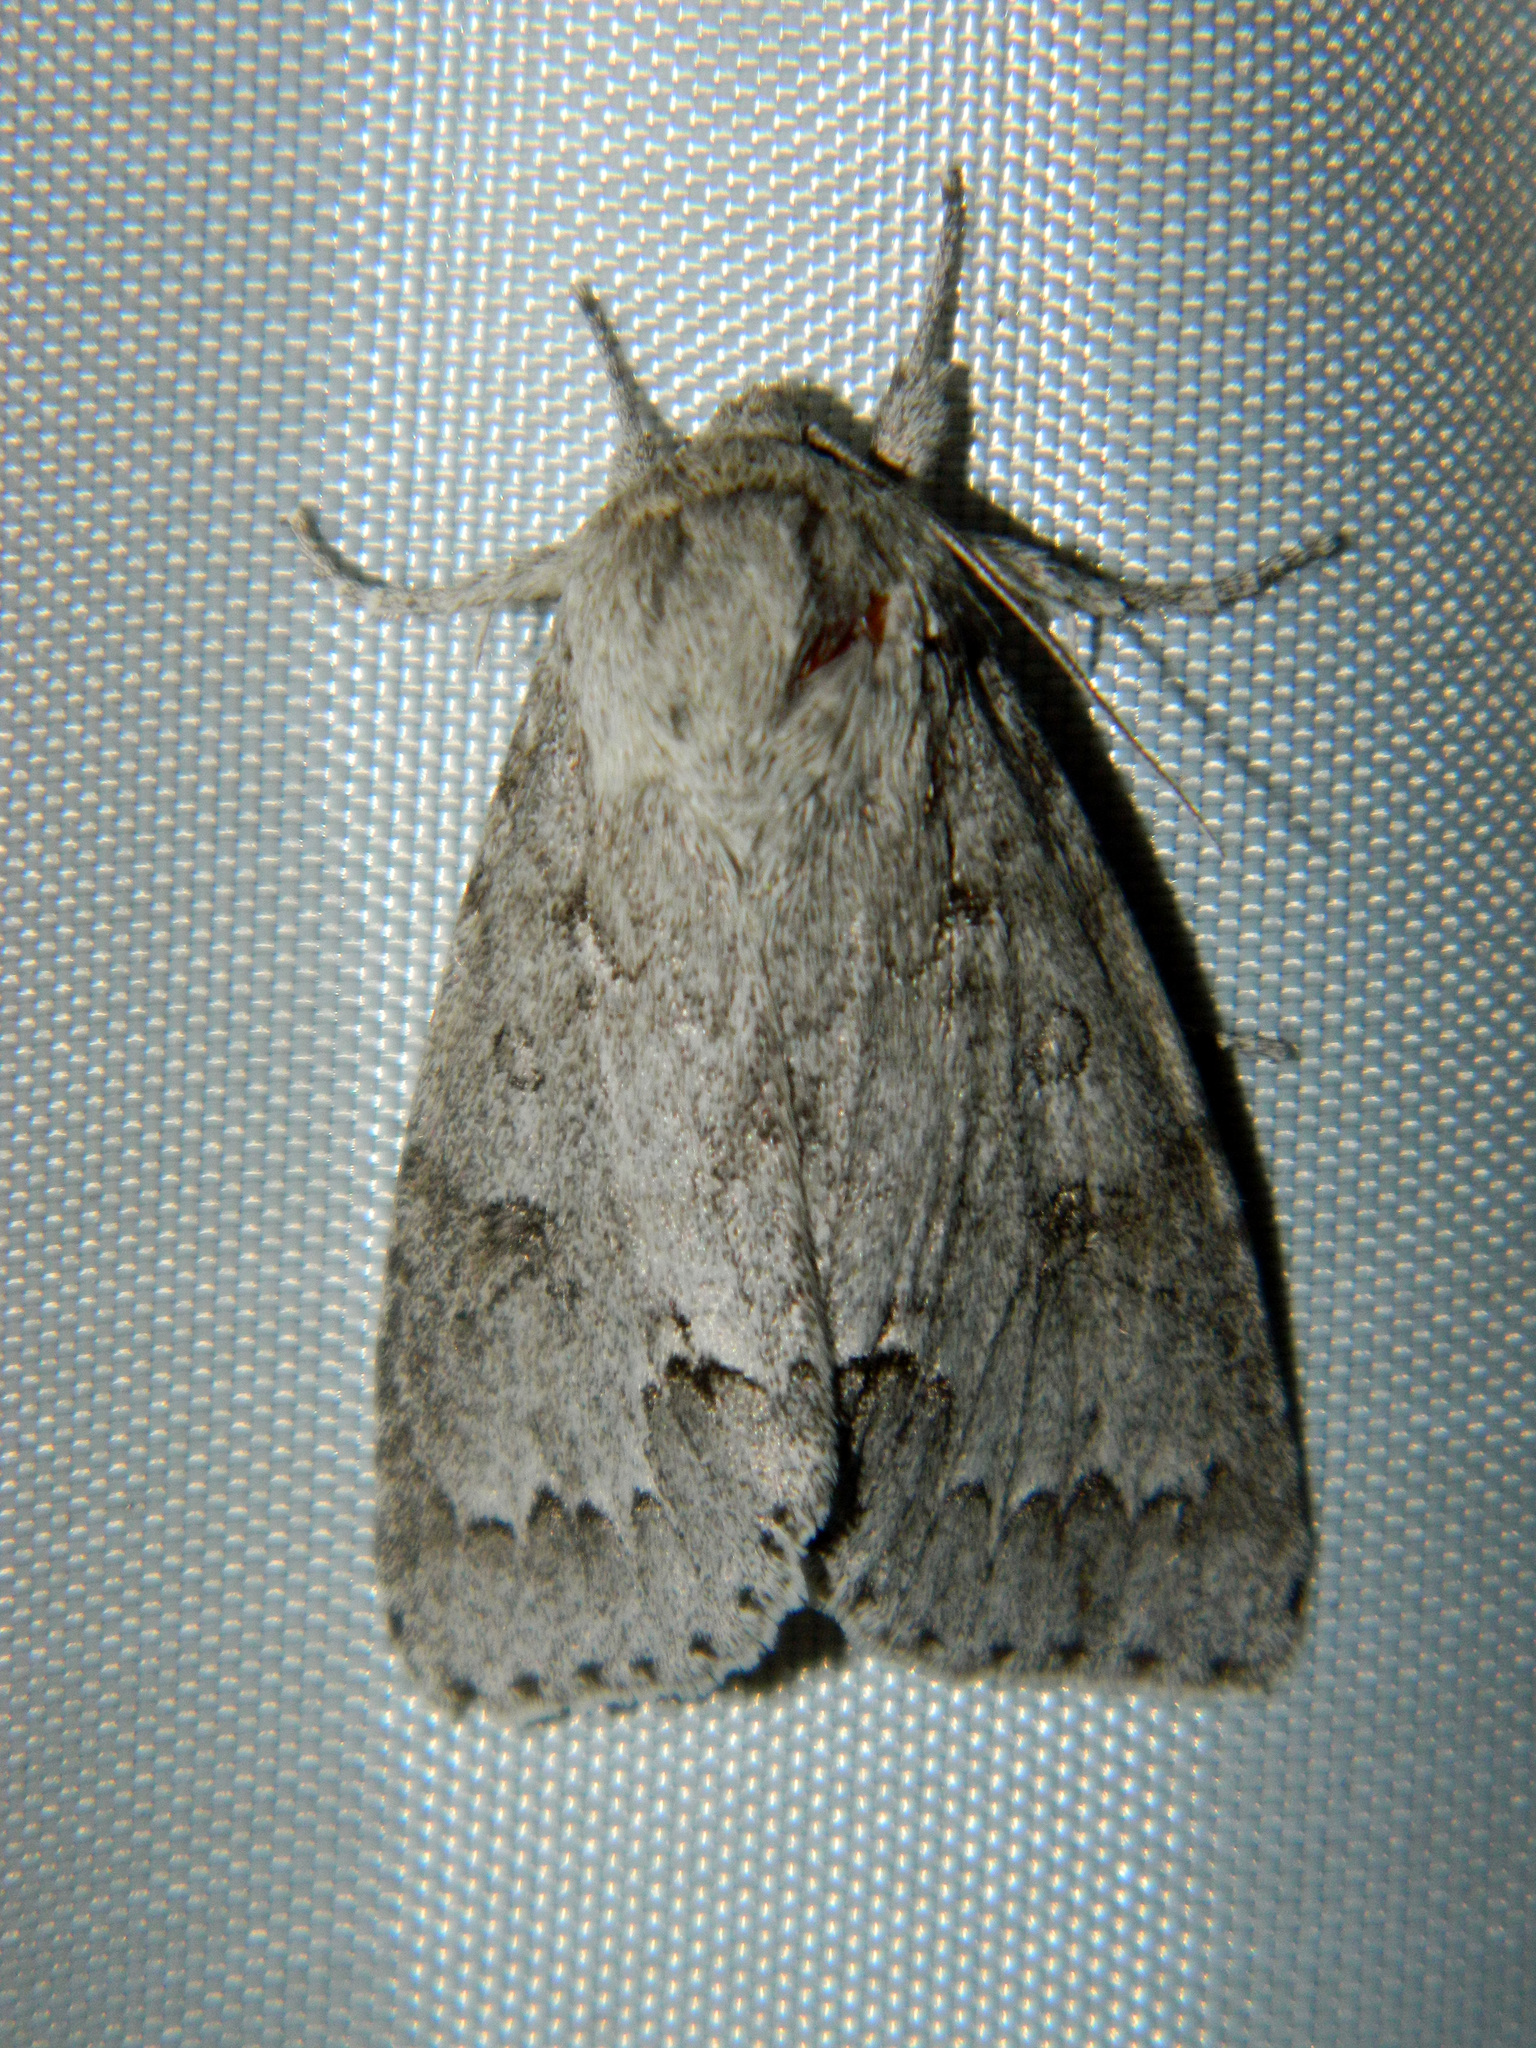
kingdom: Animalia
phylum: Arthropoda
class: Insecta
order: Lepidoptera
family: Noctuidae
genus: Acronicta
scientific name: Acronicta insita
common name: Large gray dagger
